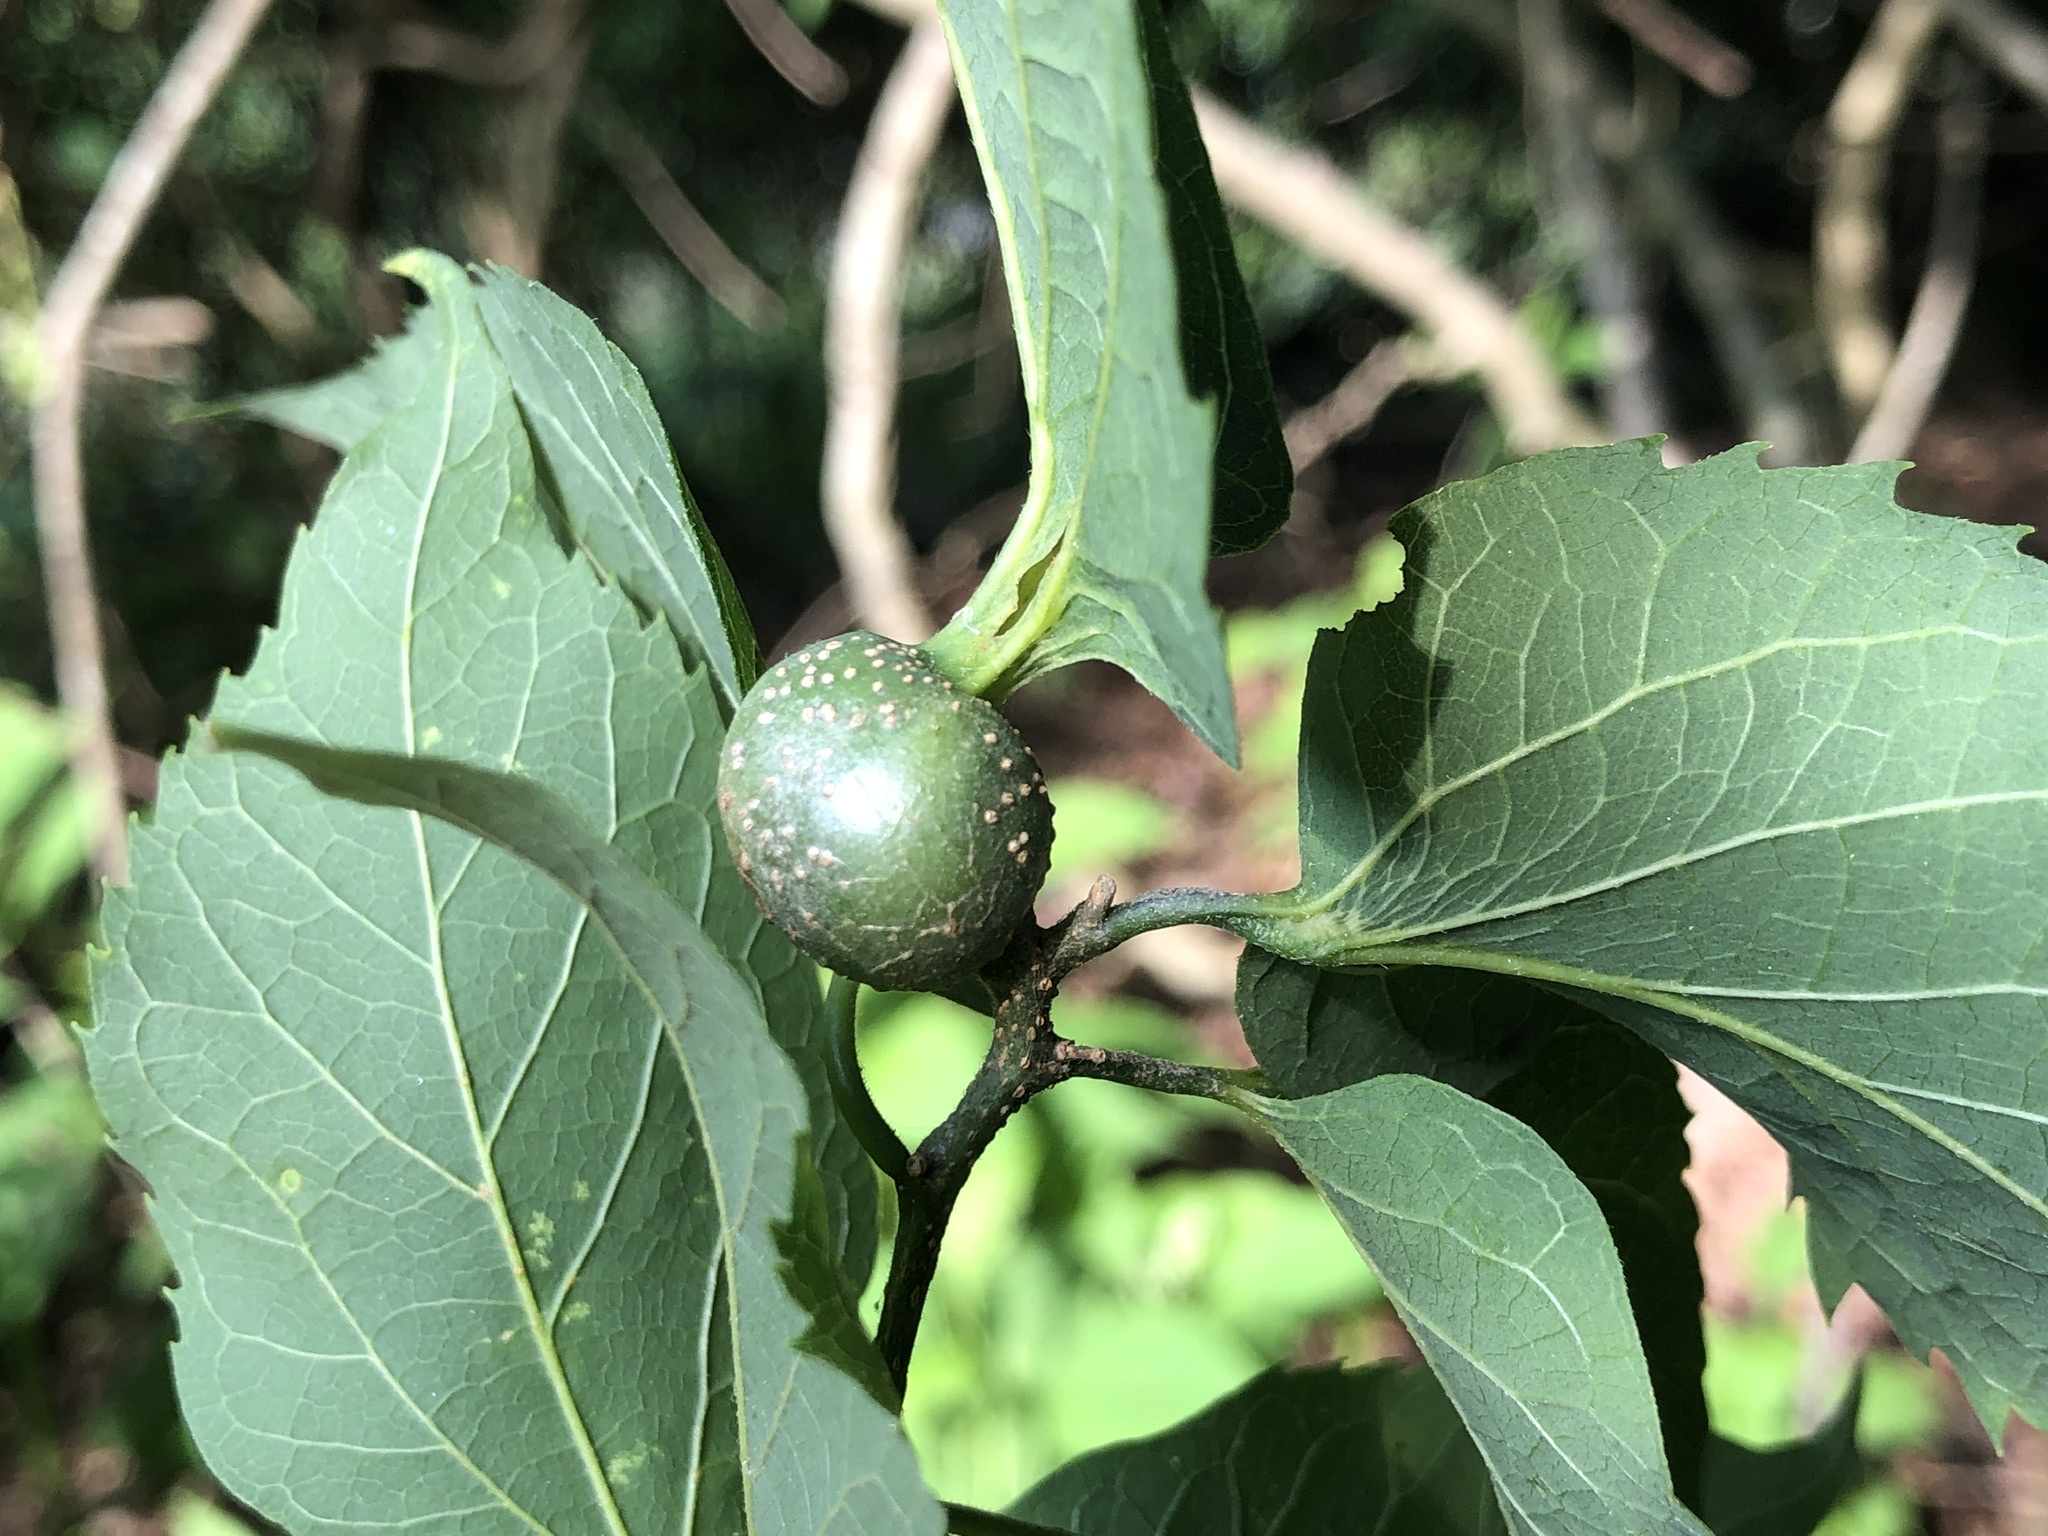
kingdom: Animalia
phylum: Arthropoda
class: Insecta
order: Hemiptera
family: Aphalaridae
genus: Pachypsylla
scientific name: Pachypsylla venusta
